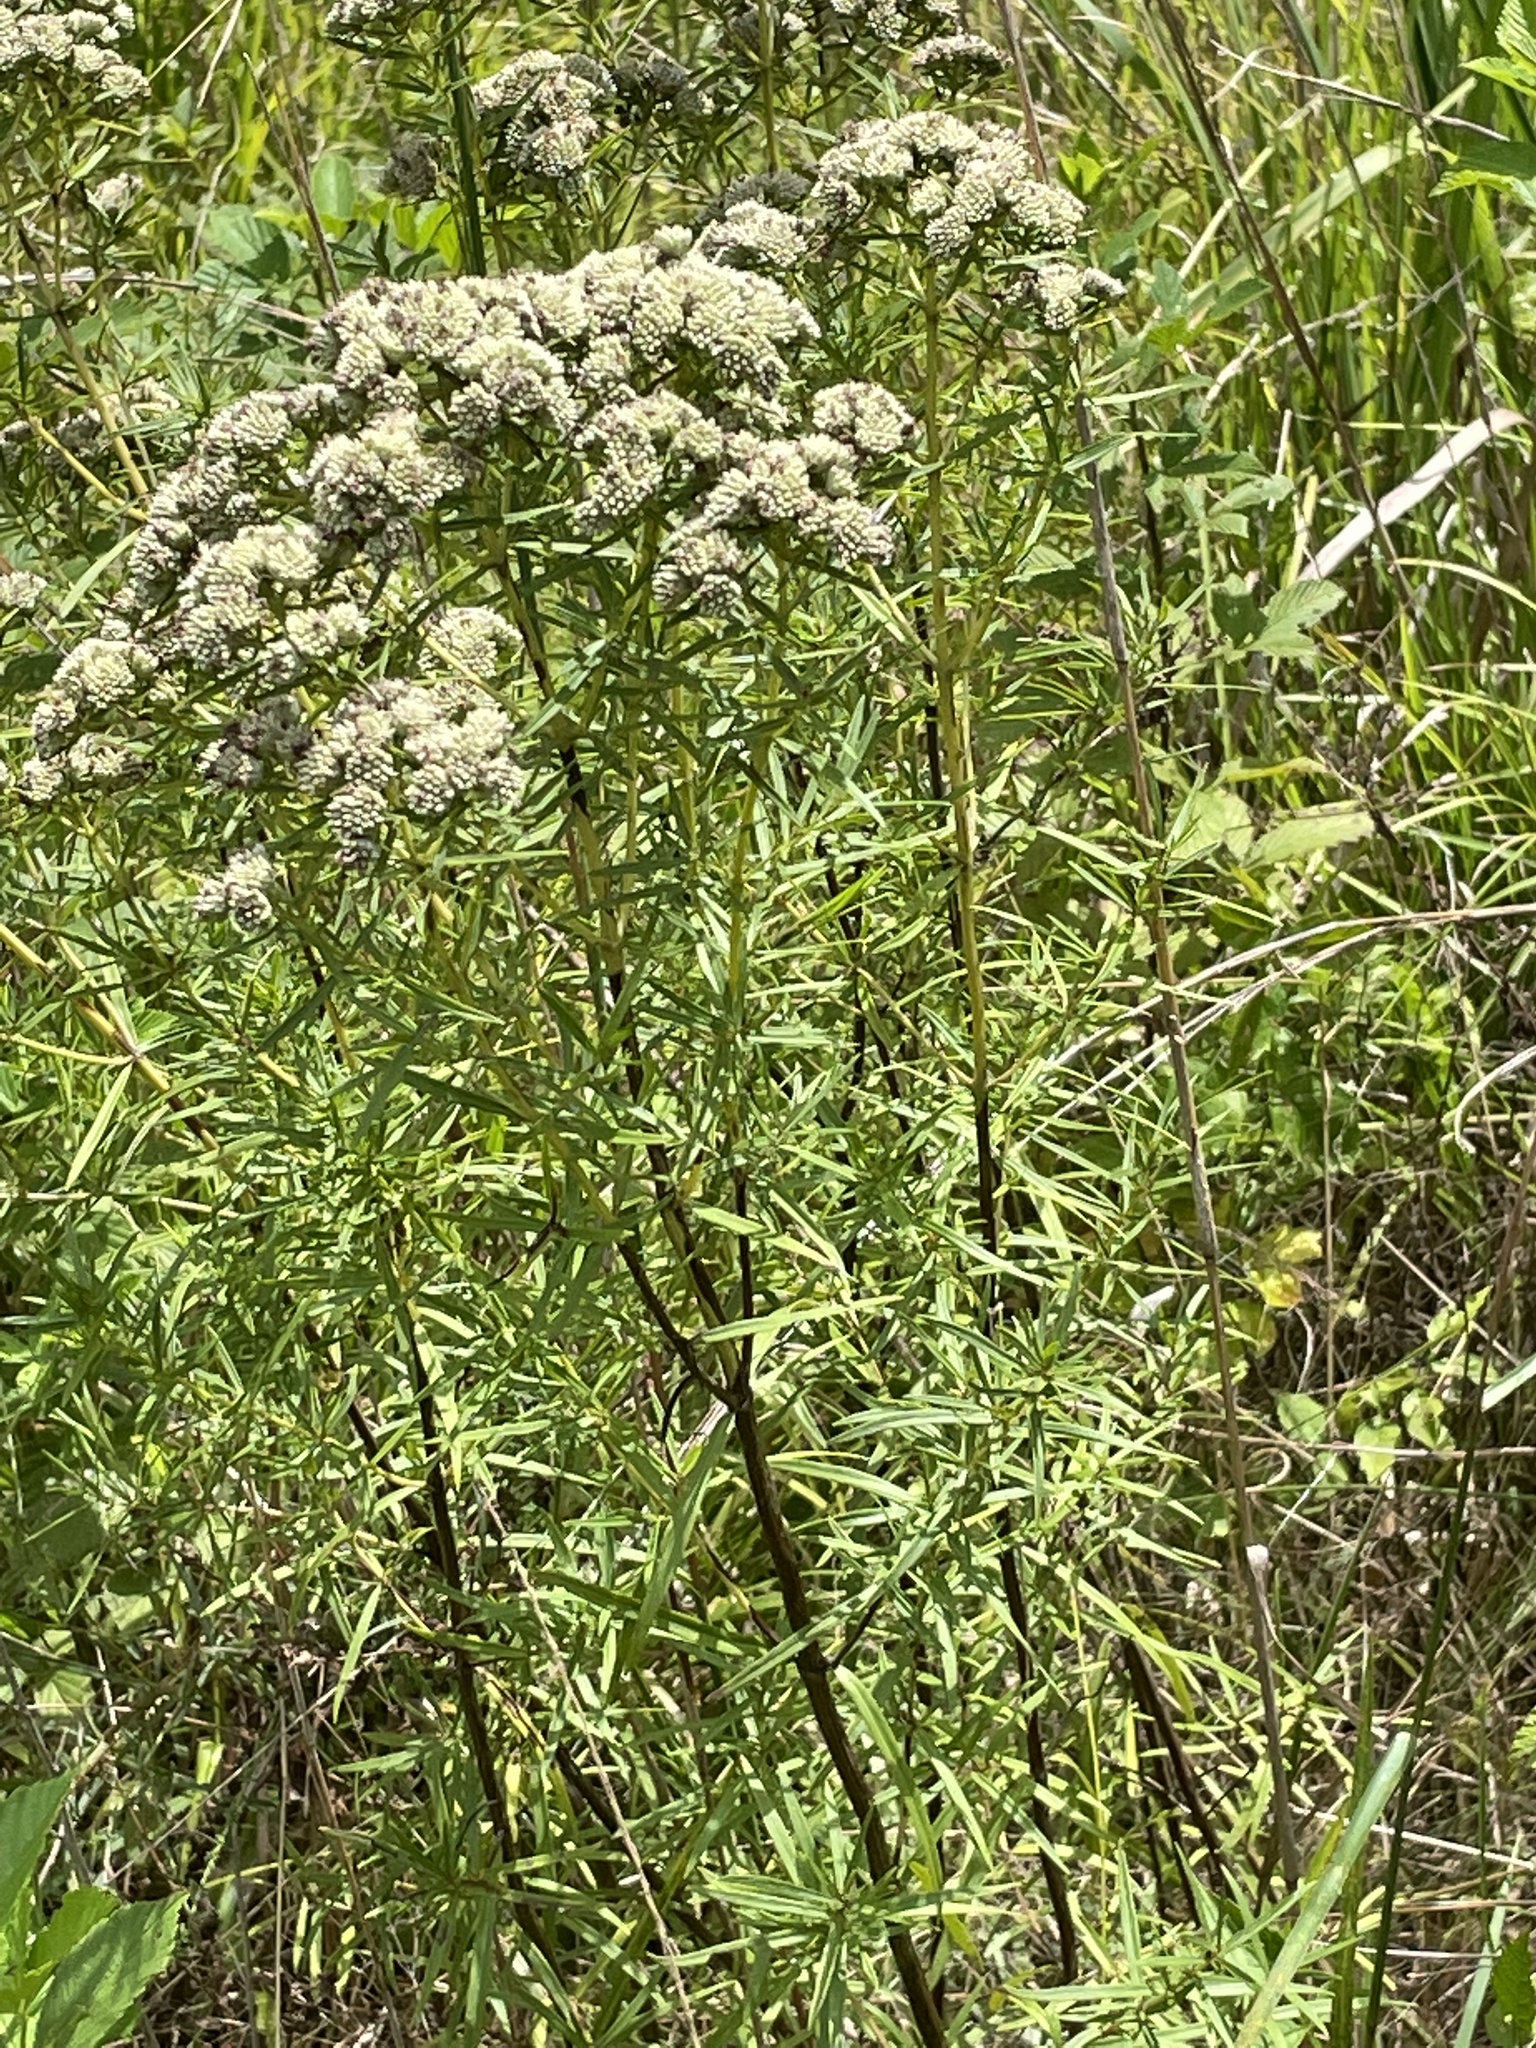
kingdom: Plantae
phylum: Tracheophyta
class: Magnoliopsida
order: Lamiales
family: Lamiaceae
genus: Pycnanthemum
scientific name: Pycnanthemum tenuifolium
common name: Narrow-leaf mountain-mint
